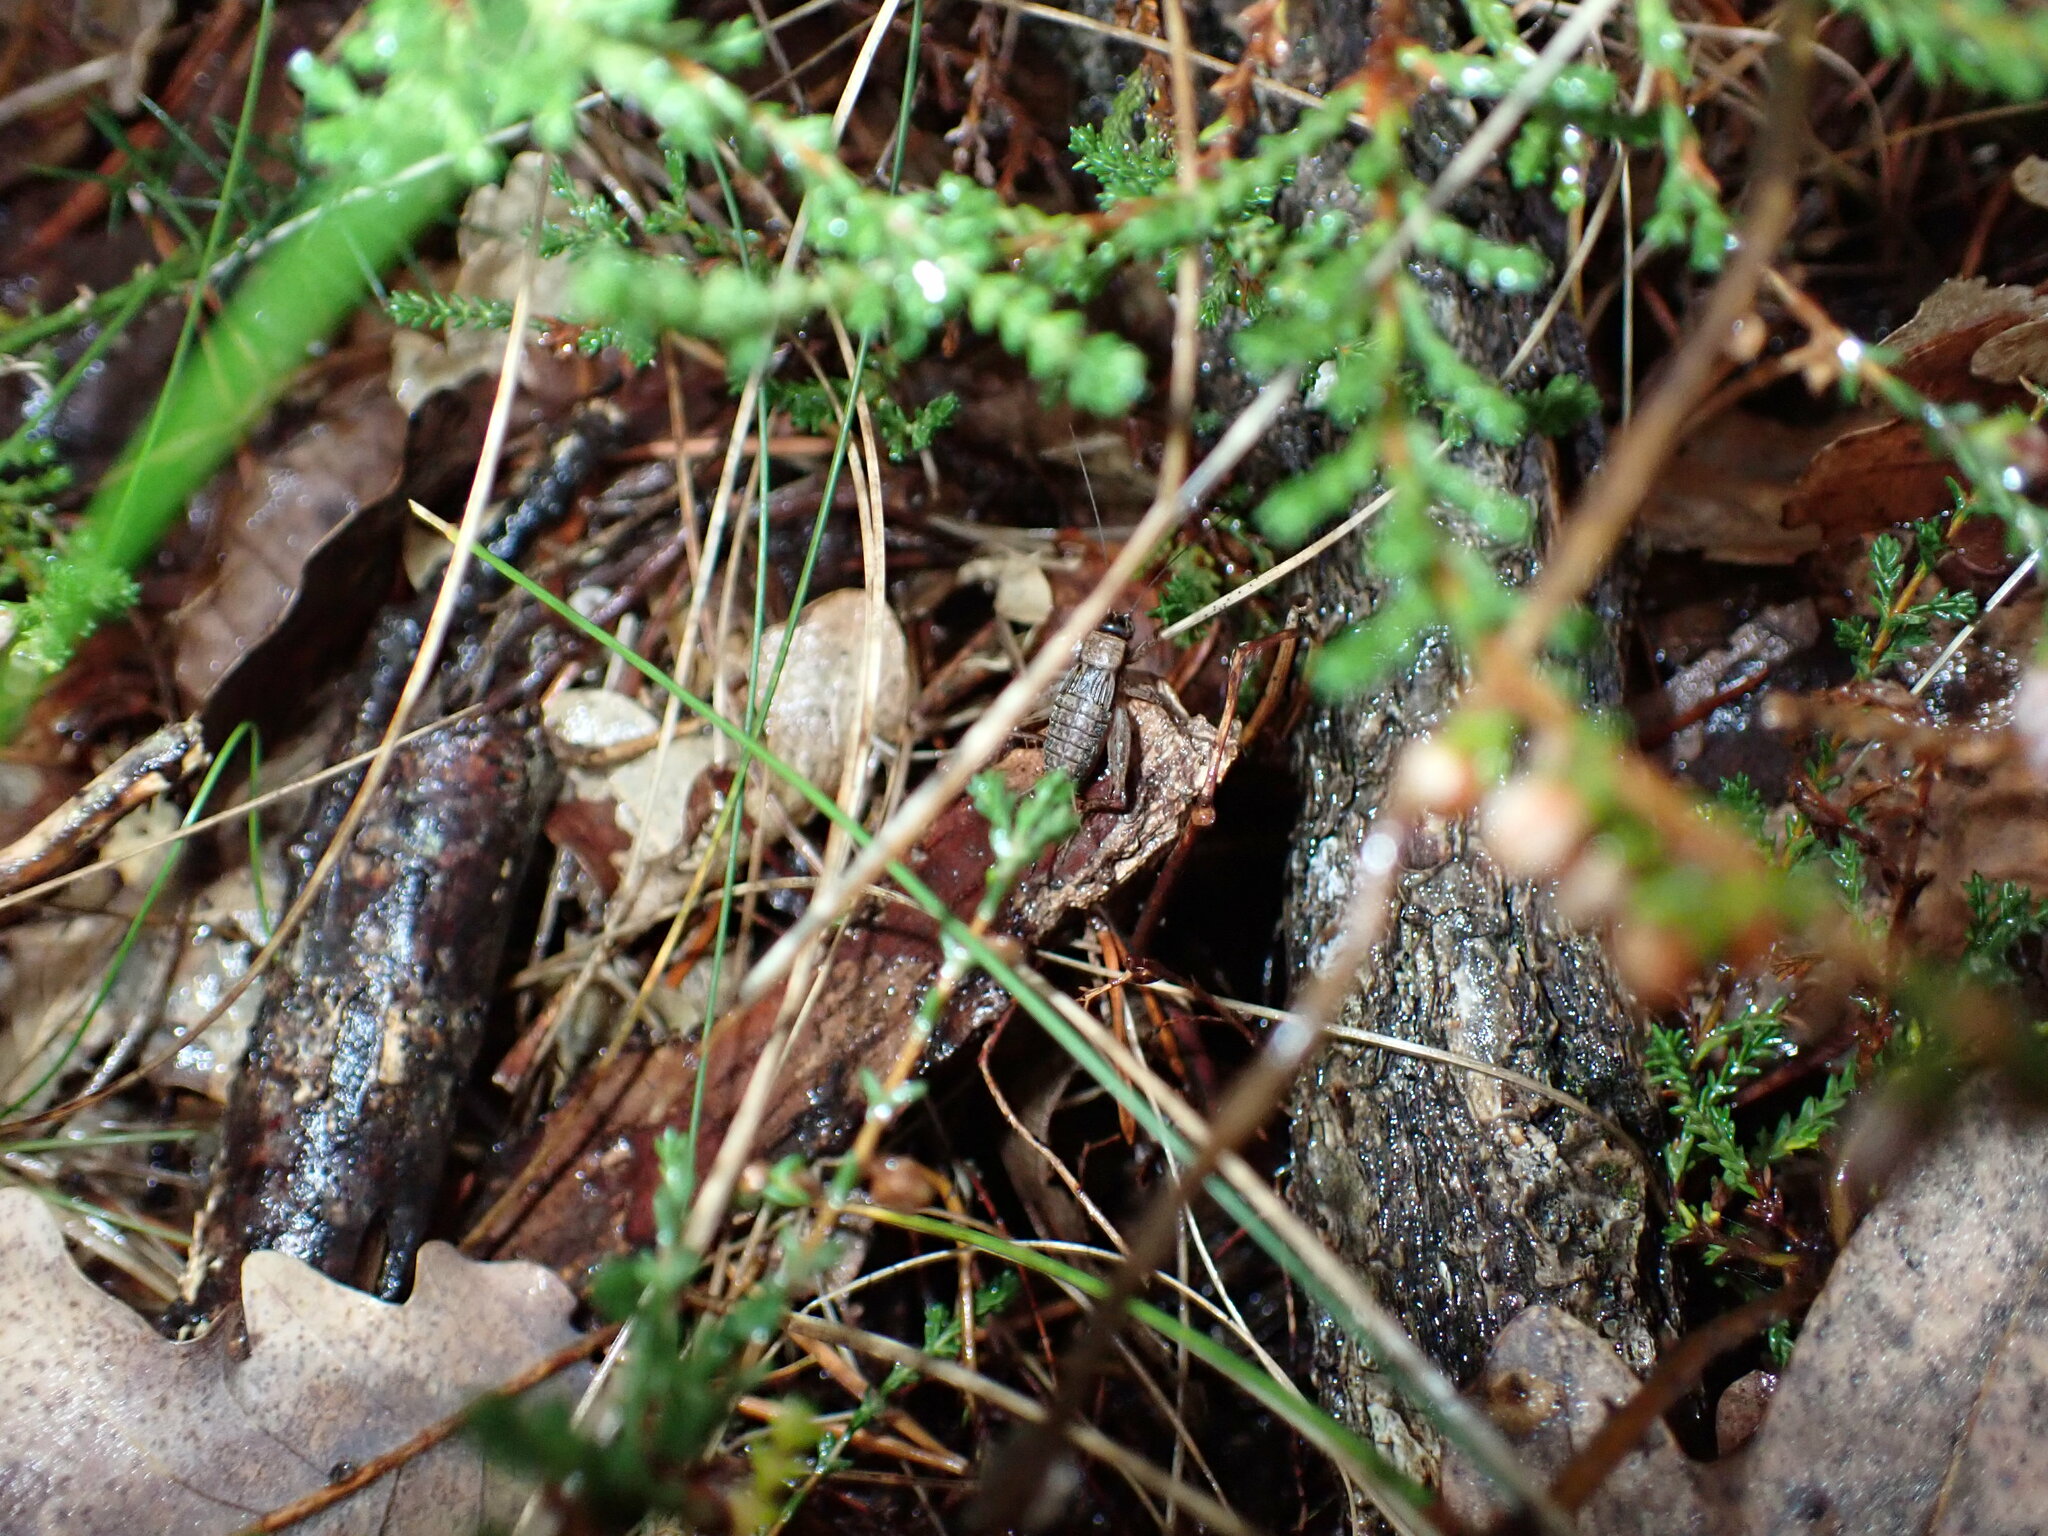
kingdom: Animalia
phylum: Arthropoda
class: Insecta
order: Orthoptera
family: Trigonidiidae
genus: Nemobius
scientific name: Nemobius sylvestris
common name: Wood-cricket
